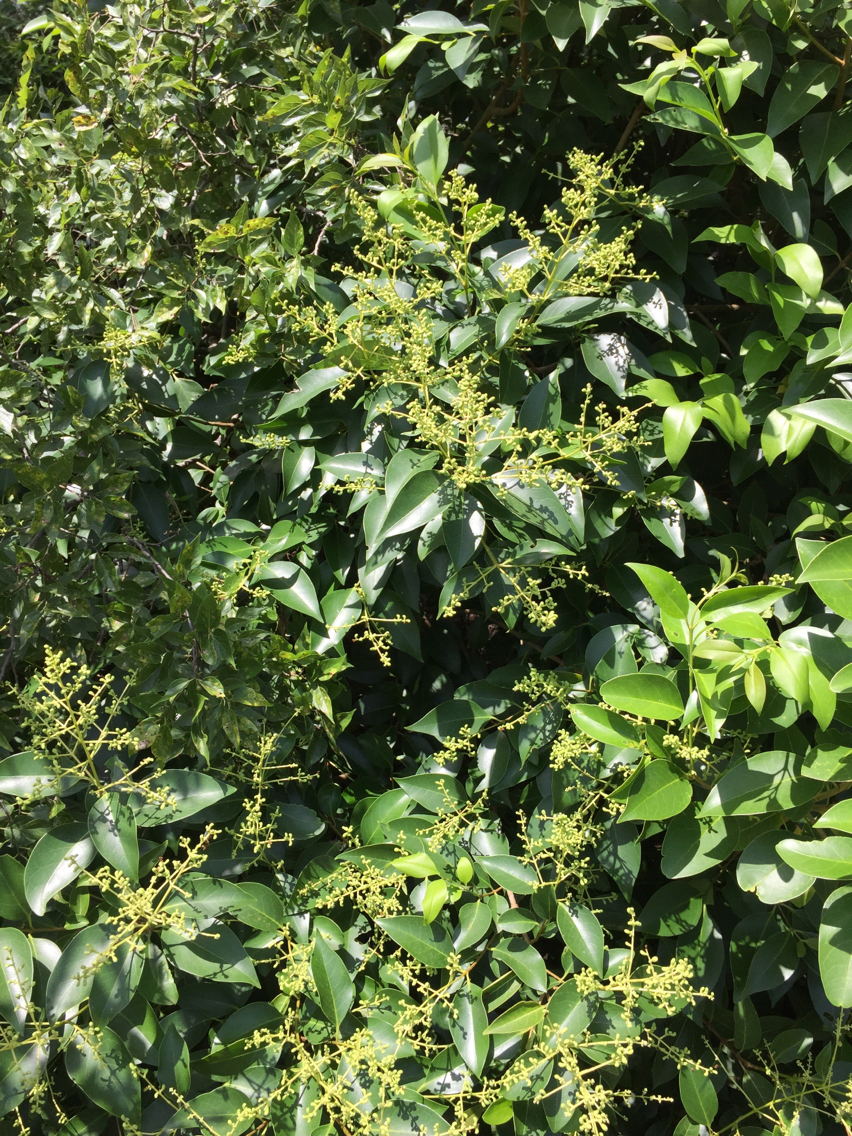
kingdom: Plantae
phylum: Tracheophyta
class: Magnoliopsida
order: Lamiales
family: Oleaceae
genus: Ligustrum
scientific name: Ligustrum lucidum
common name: Glossy privet
